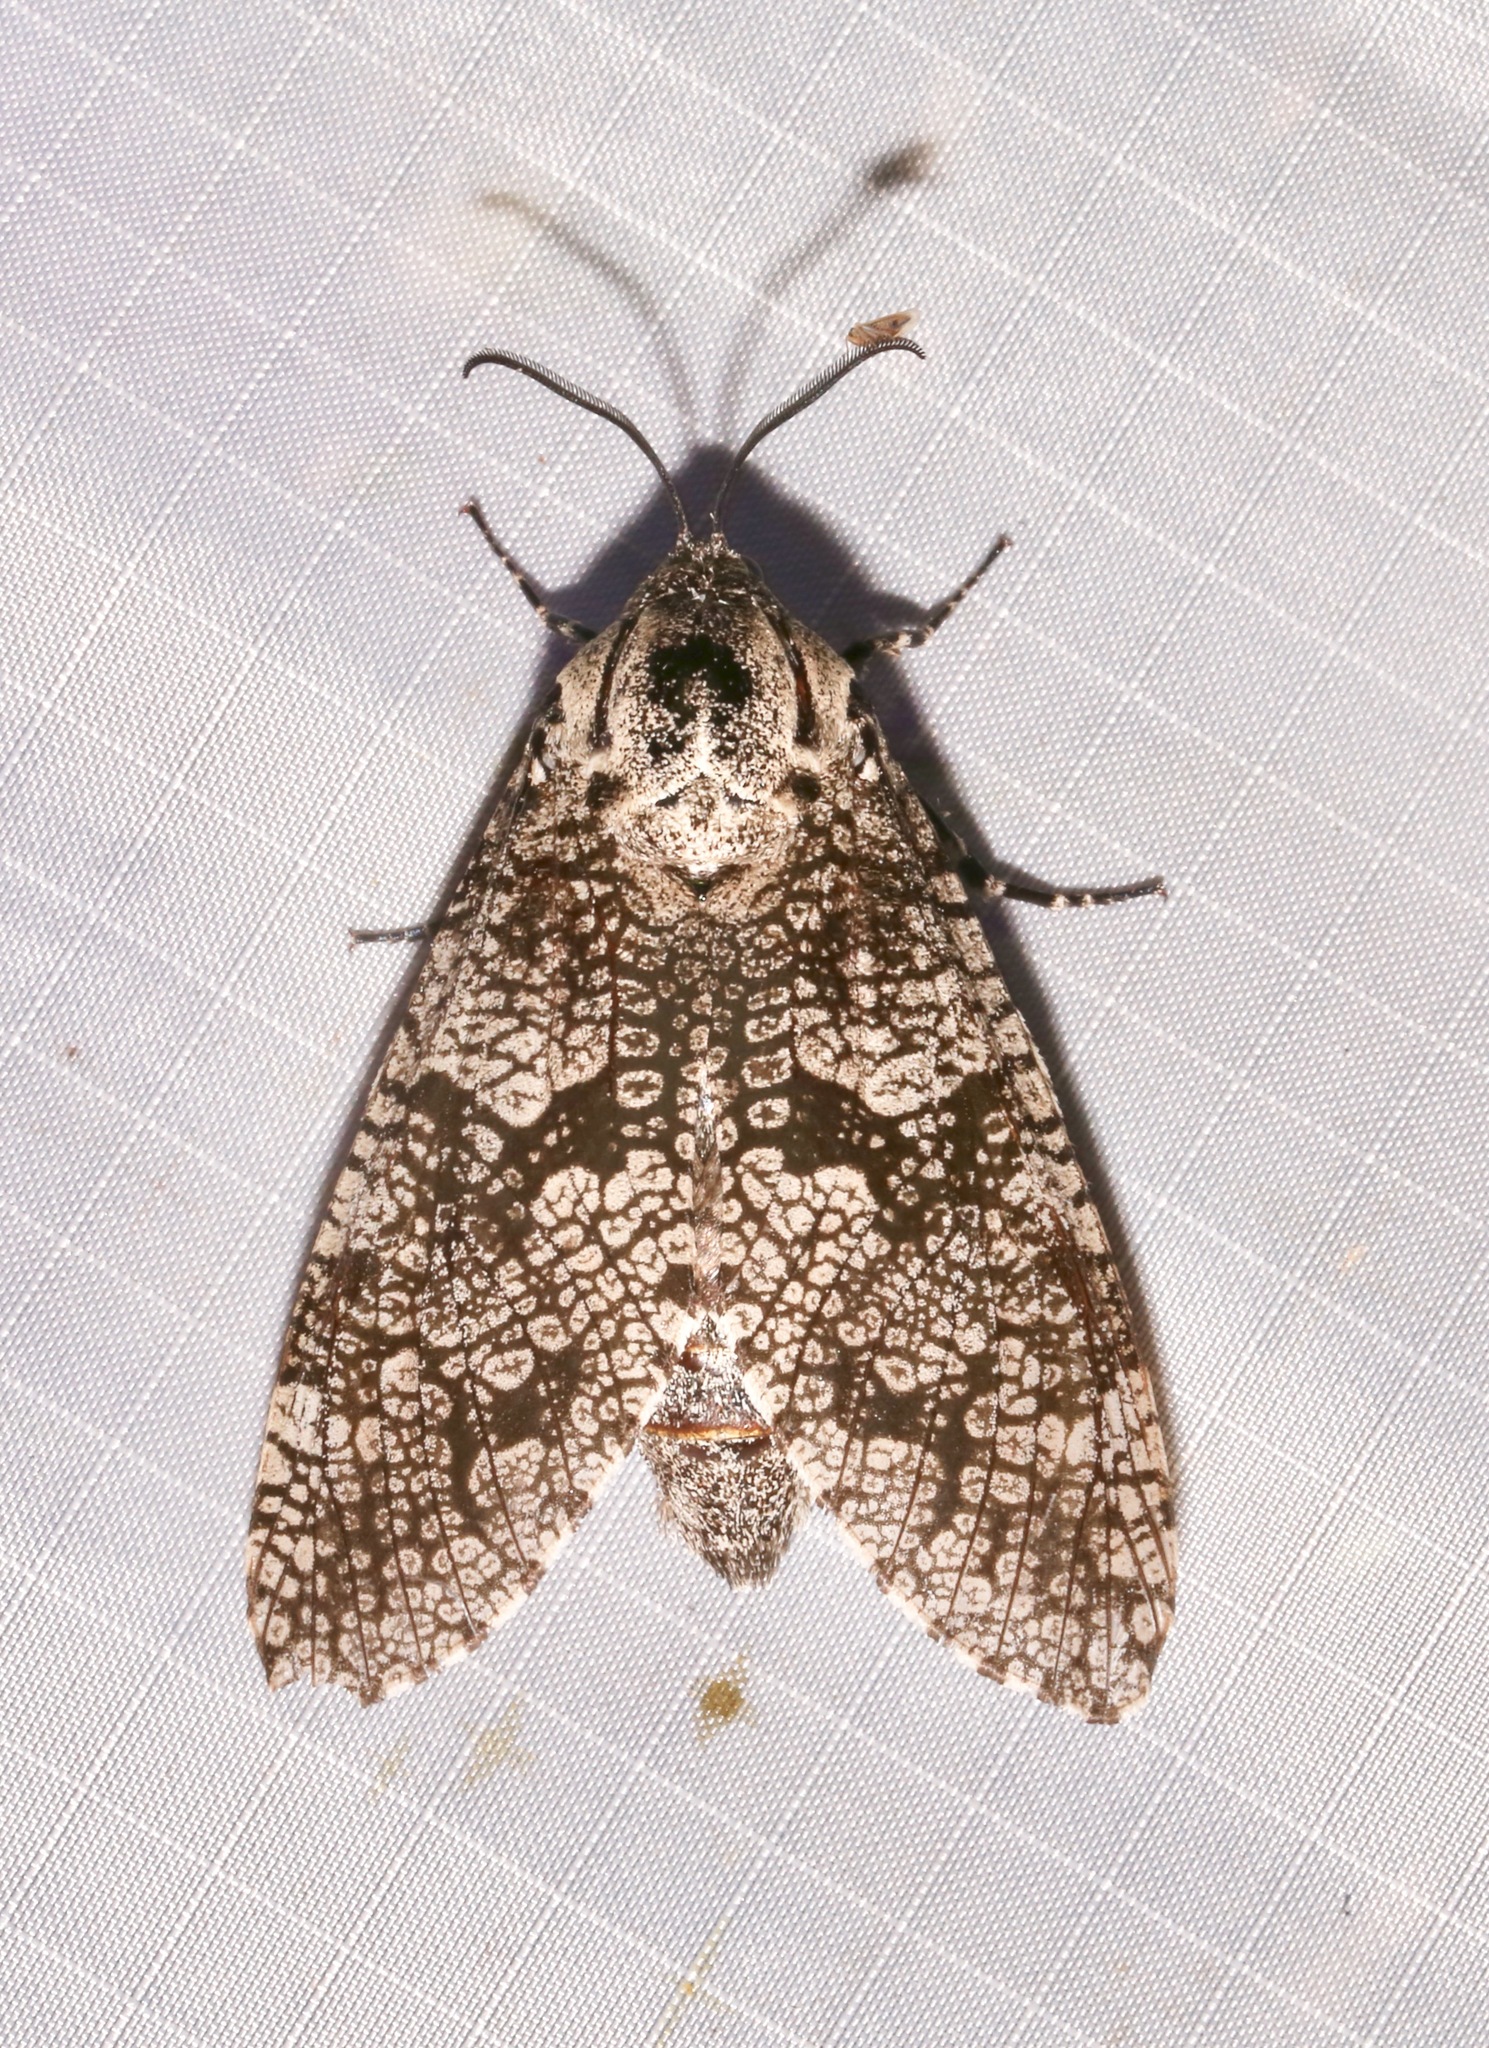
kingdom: Animalia
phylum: Arthropoda
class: Insecta
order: Lepidoptera
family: Cossidae
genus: Prionoxystus
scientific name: Prionoxystus robiniae
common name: Carpenterworm
